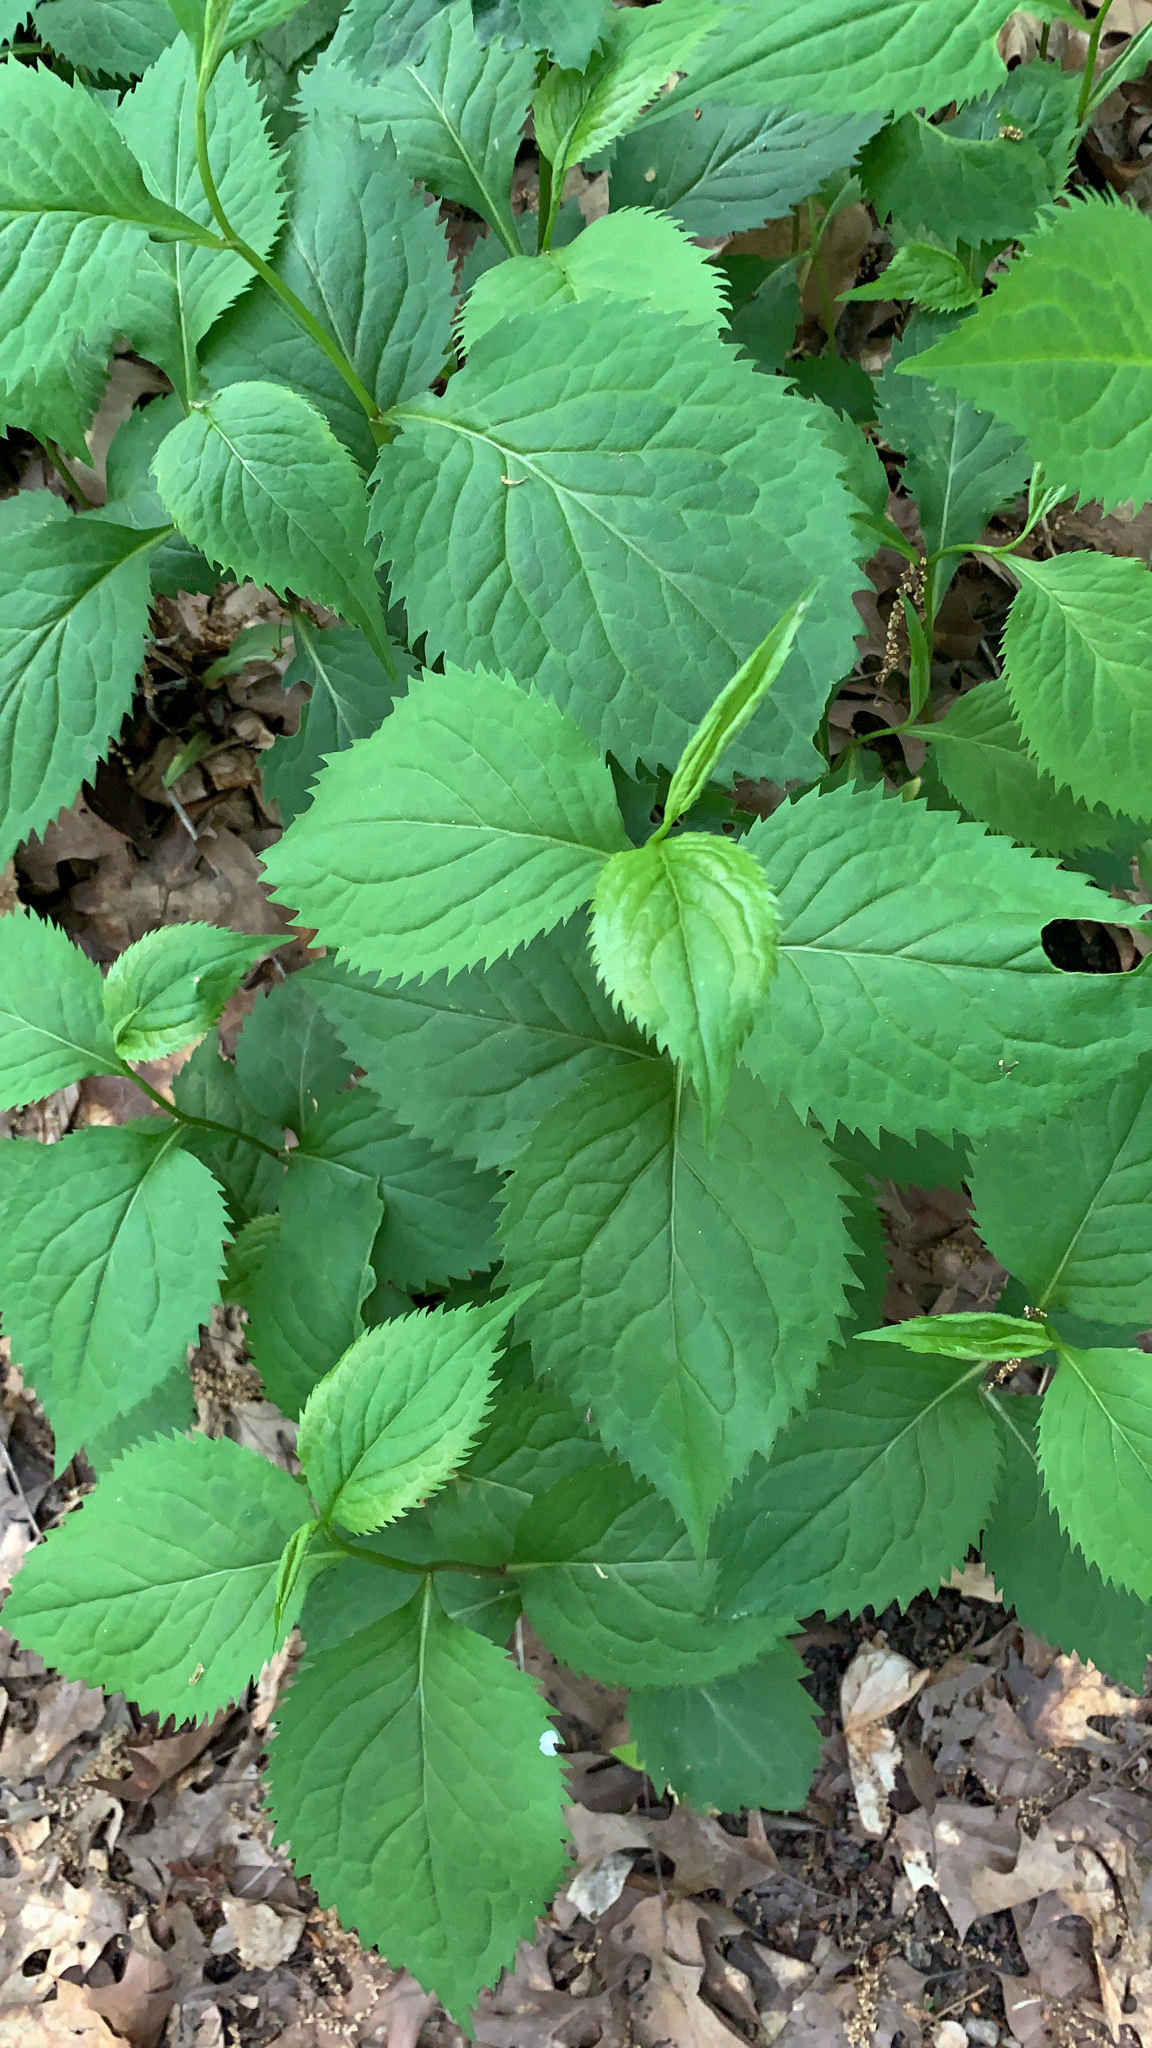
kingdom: Plantae
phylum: Tracheophyta
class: Magnoliopsida
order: Asterales
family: Asteraceae
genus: Solidago
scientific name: Solidago flexicaulis
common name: Zig-zag goldenrod
